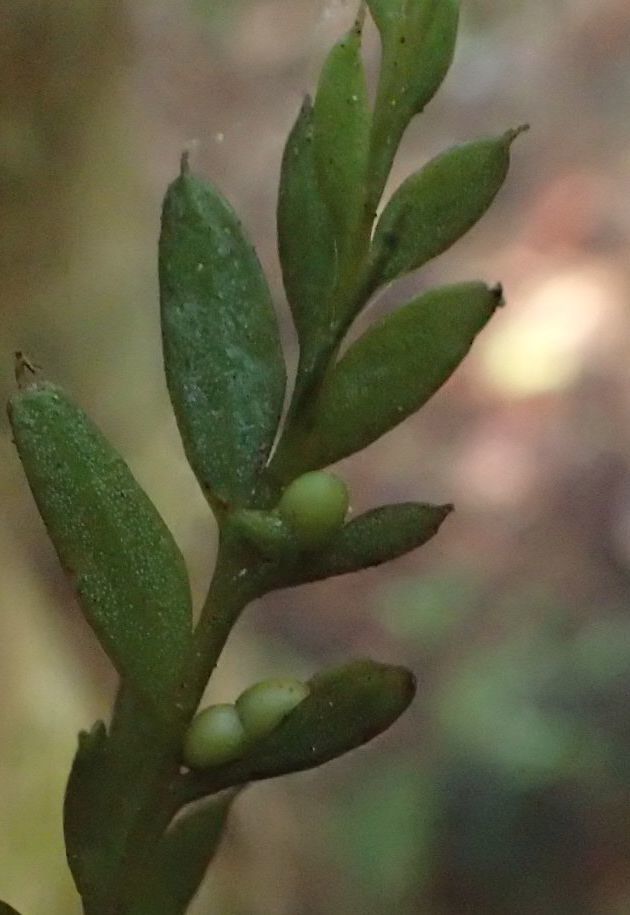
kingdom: Plantae
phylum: Tracheophyta
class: Polypodiopsida
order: Psilotales
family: Psilotaceae
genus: Tmesipteris
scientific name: Tmesipteris elongata
